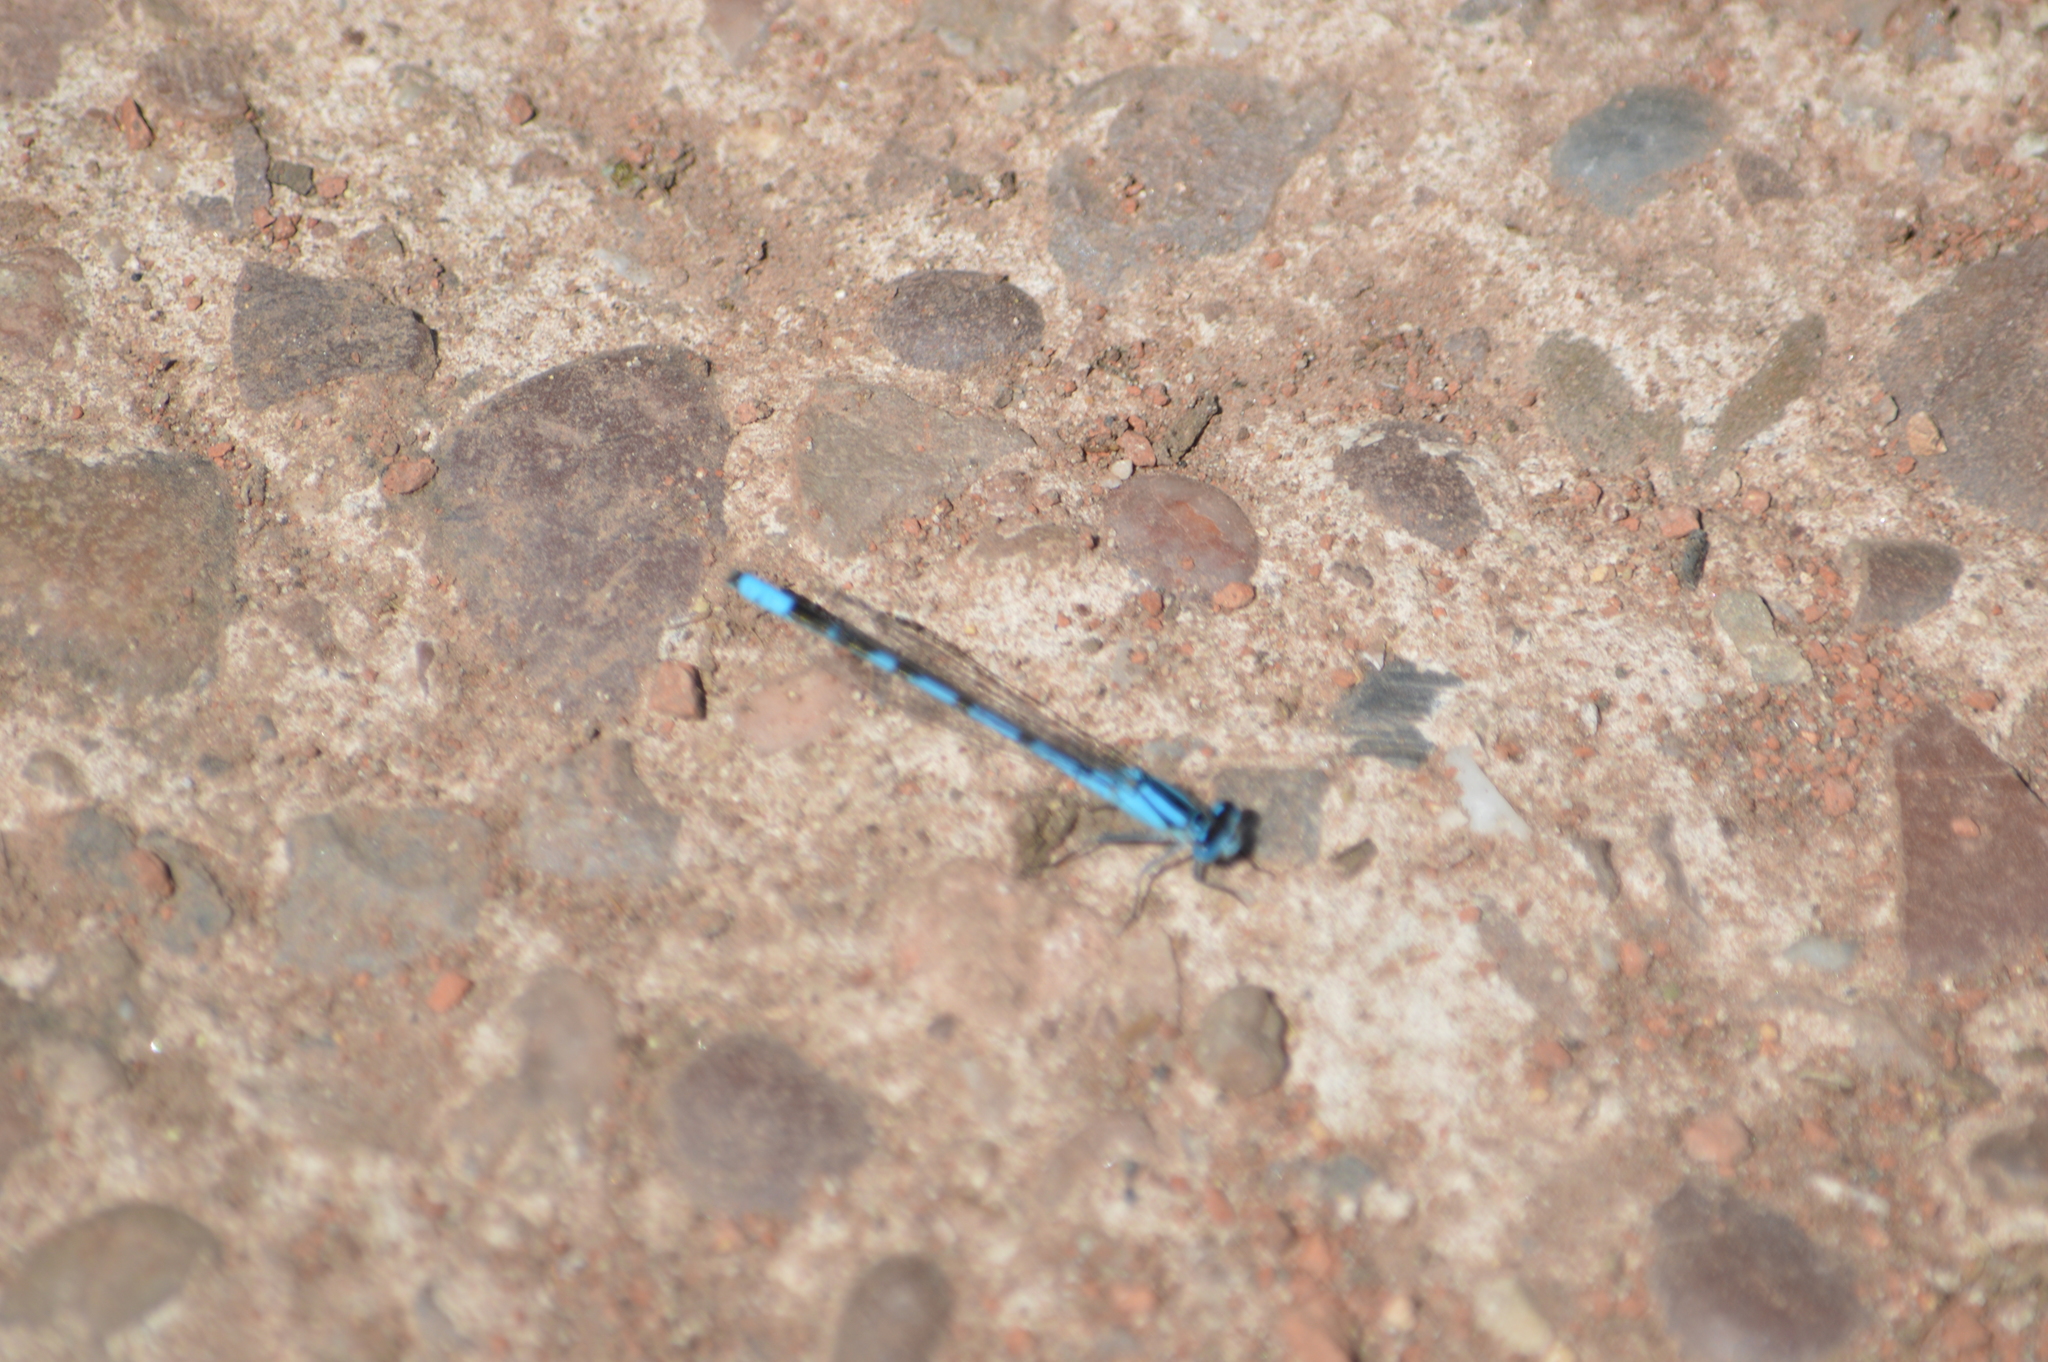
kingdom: Animalia
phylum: Arthropoda
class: Insecta
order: Odonata
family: Coenagrionidae
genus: Enallagma
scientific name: Enallagma cyathigerum
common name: Common blue damselfly
